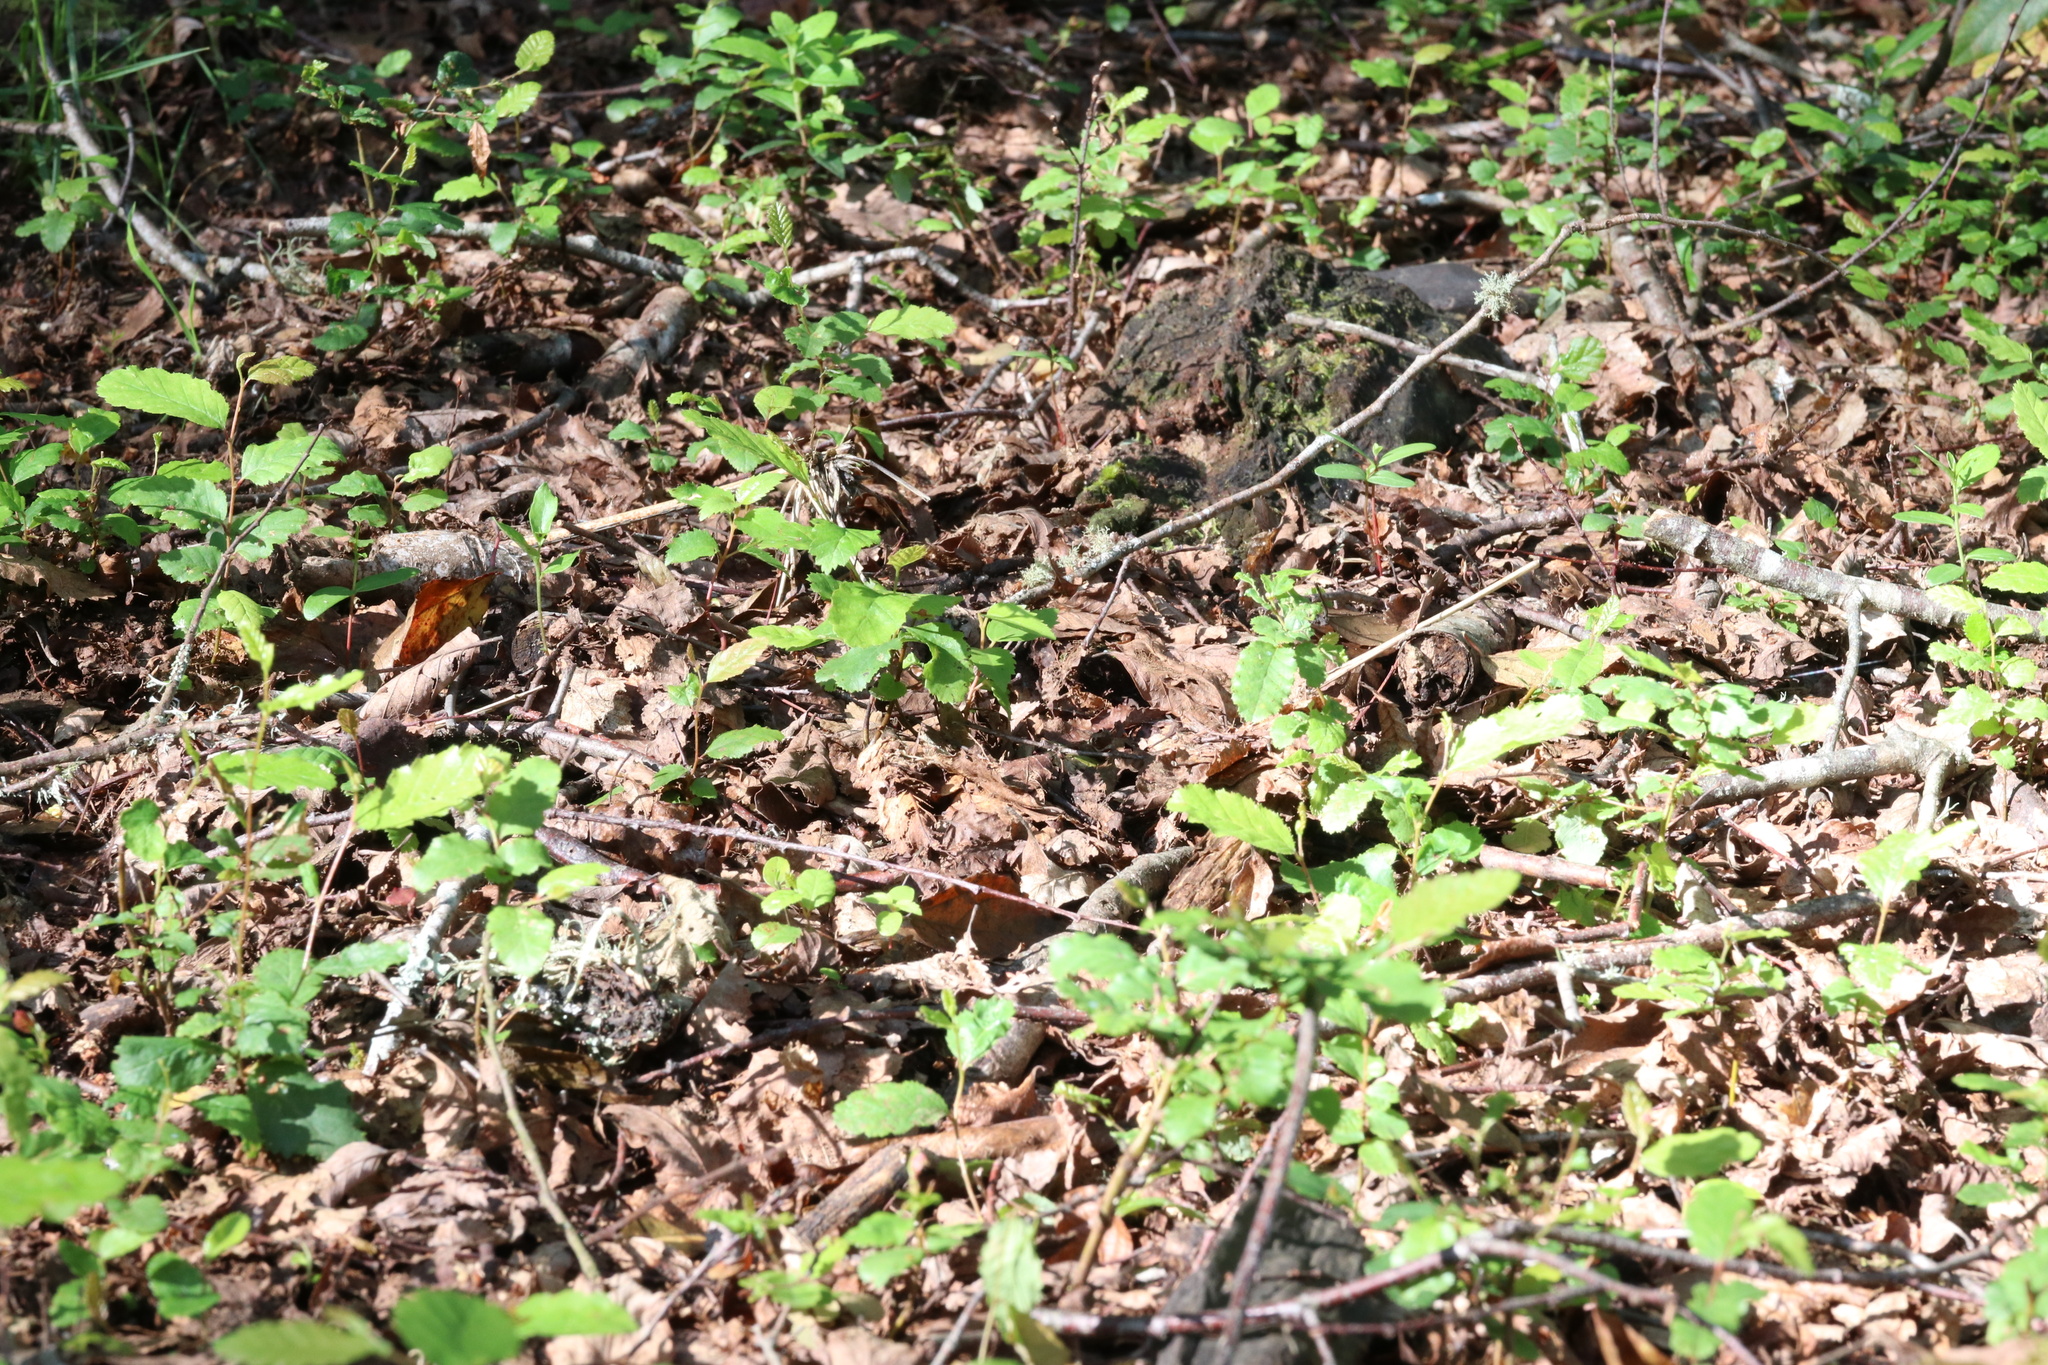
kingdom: Plantae
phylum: Tracheophyta
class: Magnoliopsida
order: Fagales
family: Nothofagaceae
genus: Nothofagus
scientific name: Nothofagus obliqua
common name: Roble beech
